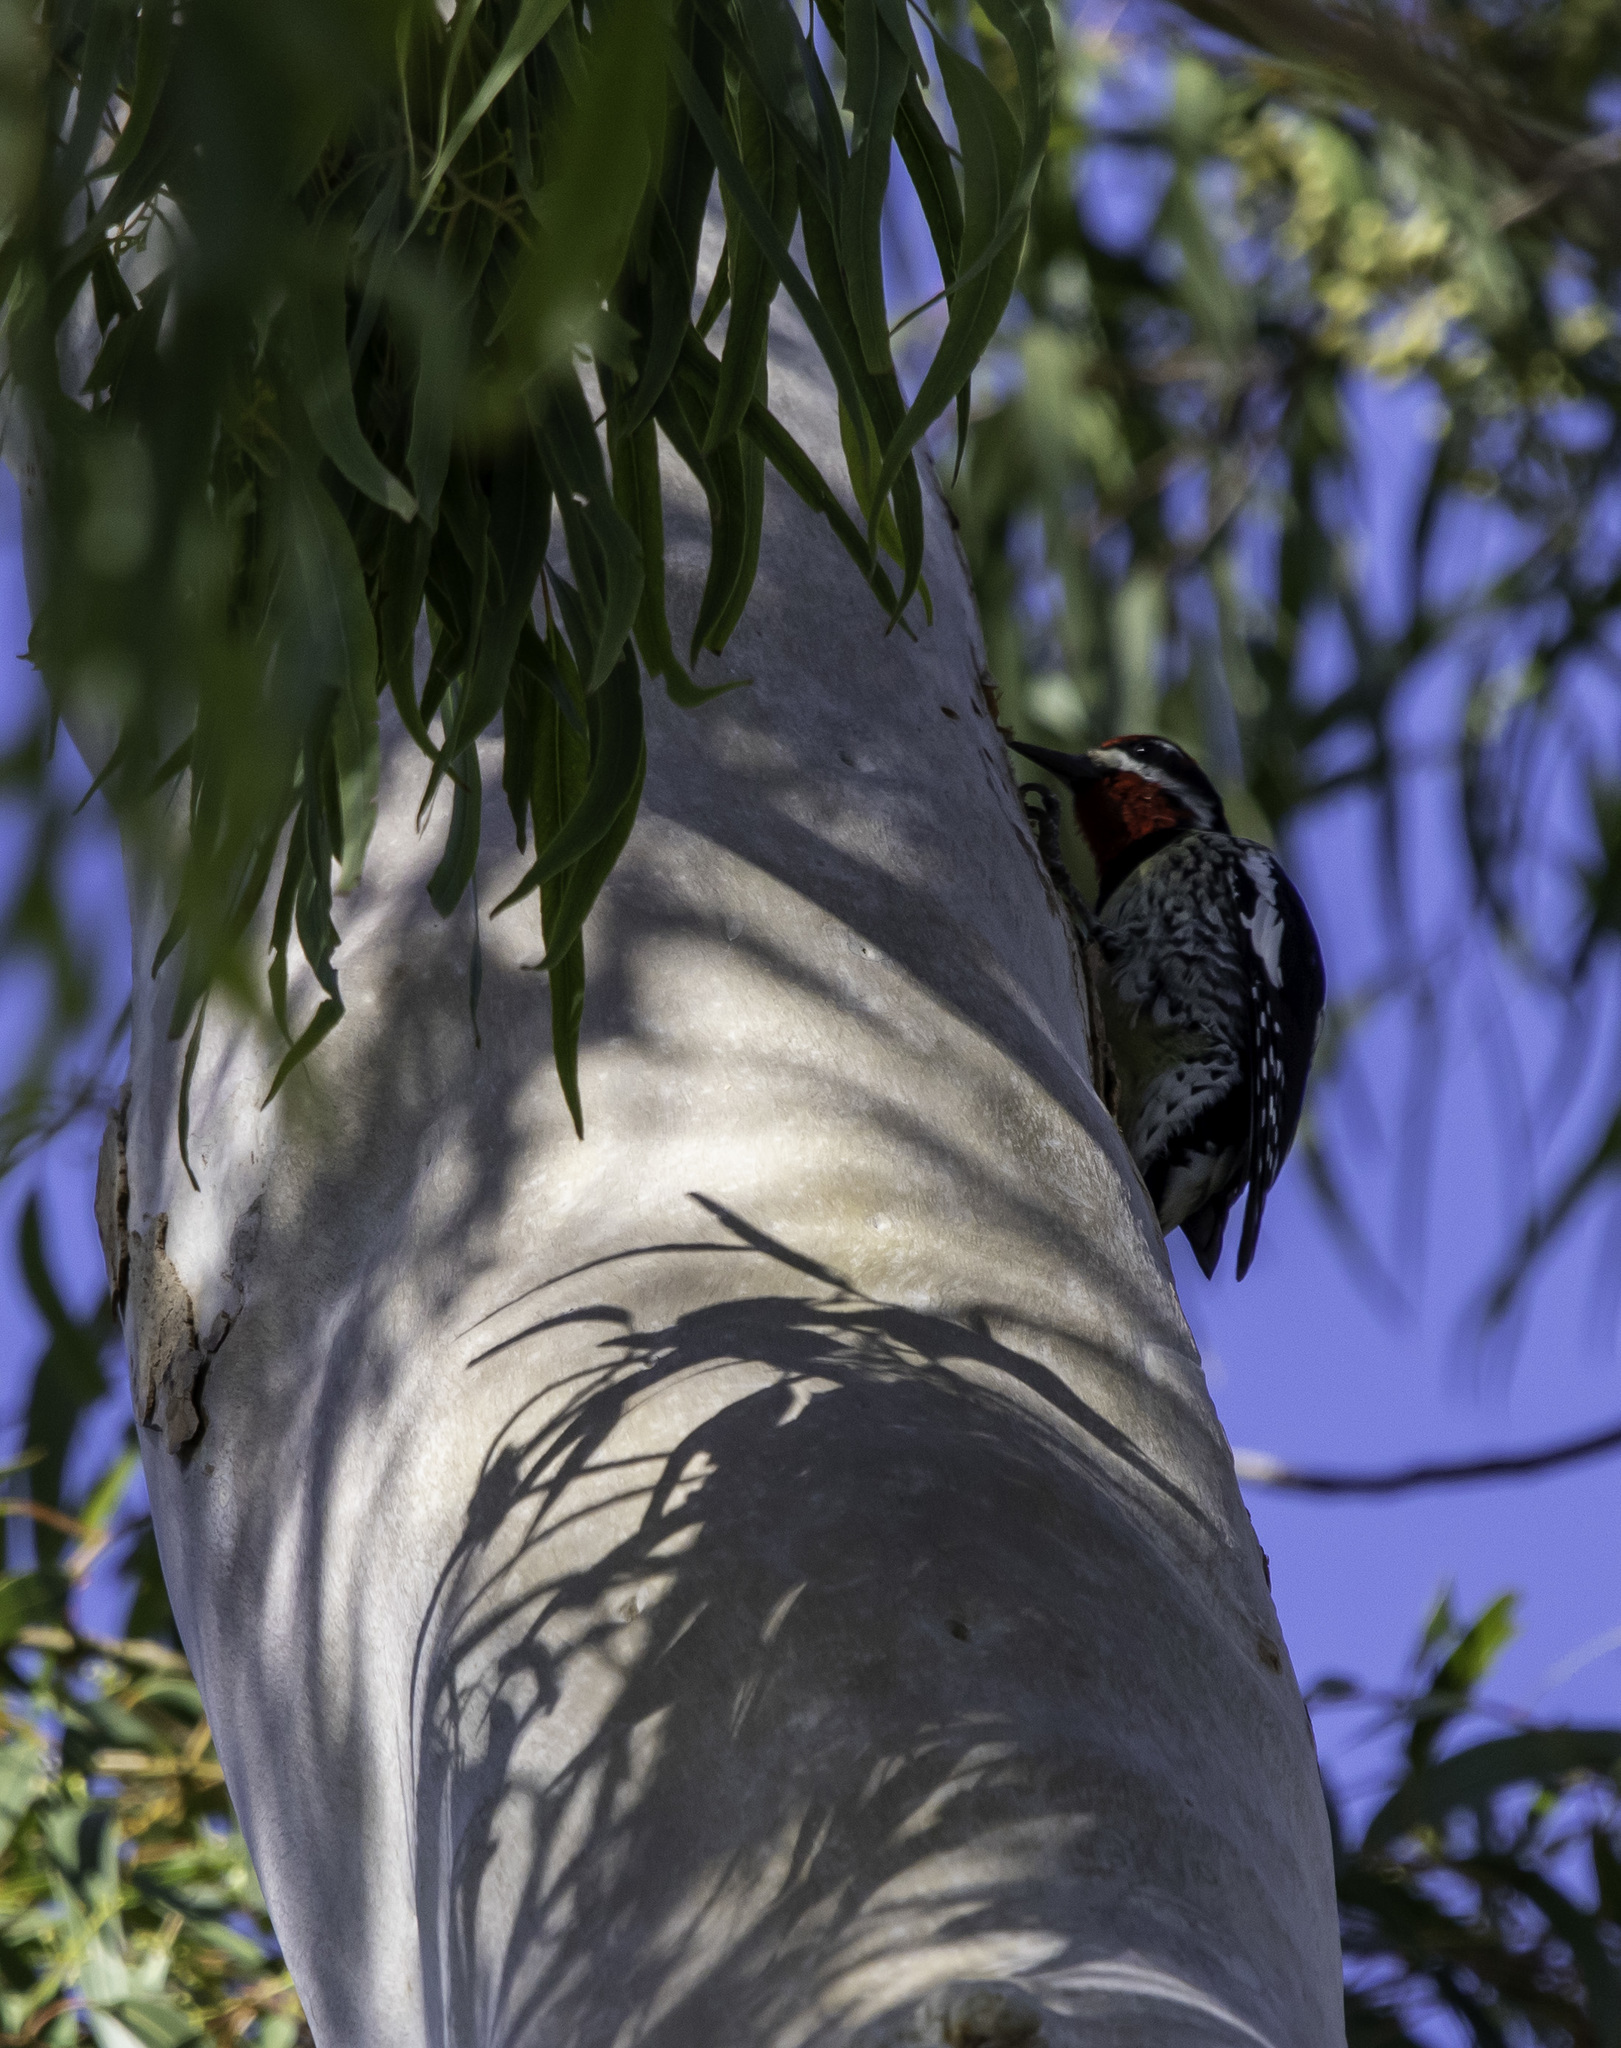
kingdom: Animalia
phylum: Chordata
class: Aves
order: Piciformes
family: Picidae
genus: Sphyrapicus
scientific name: Sphyrapicus nuchalis
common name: Red-naped sapsucker
